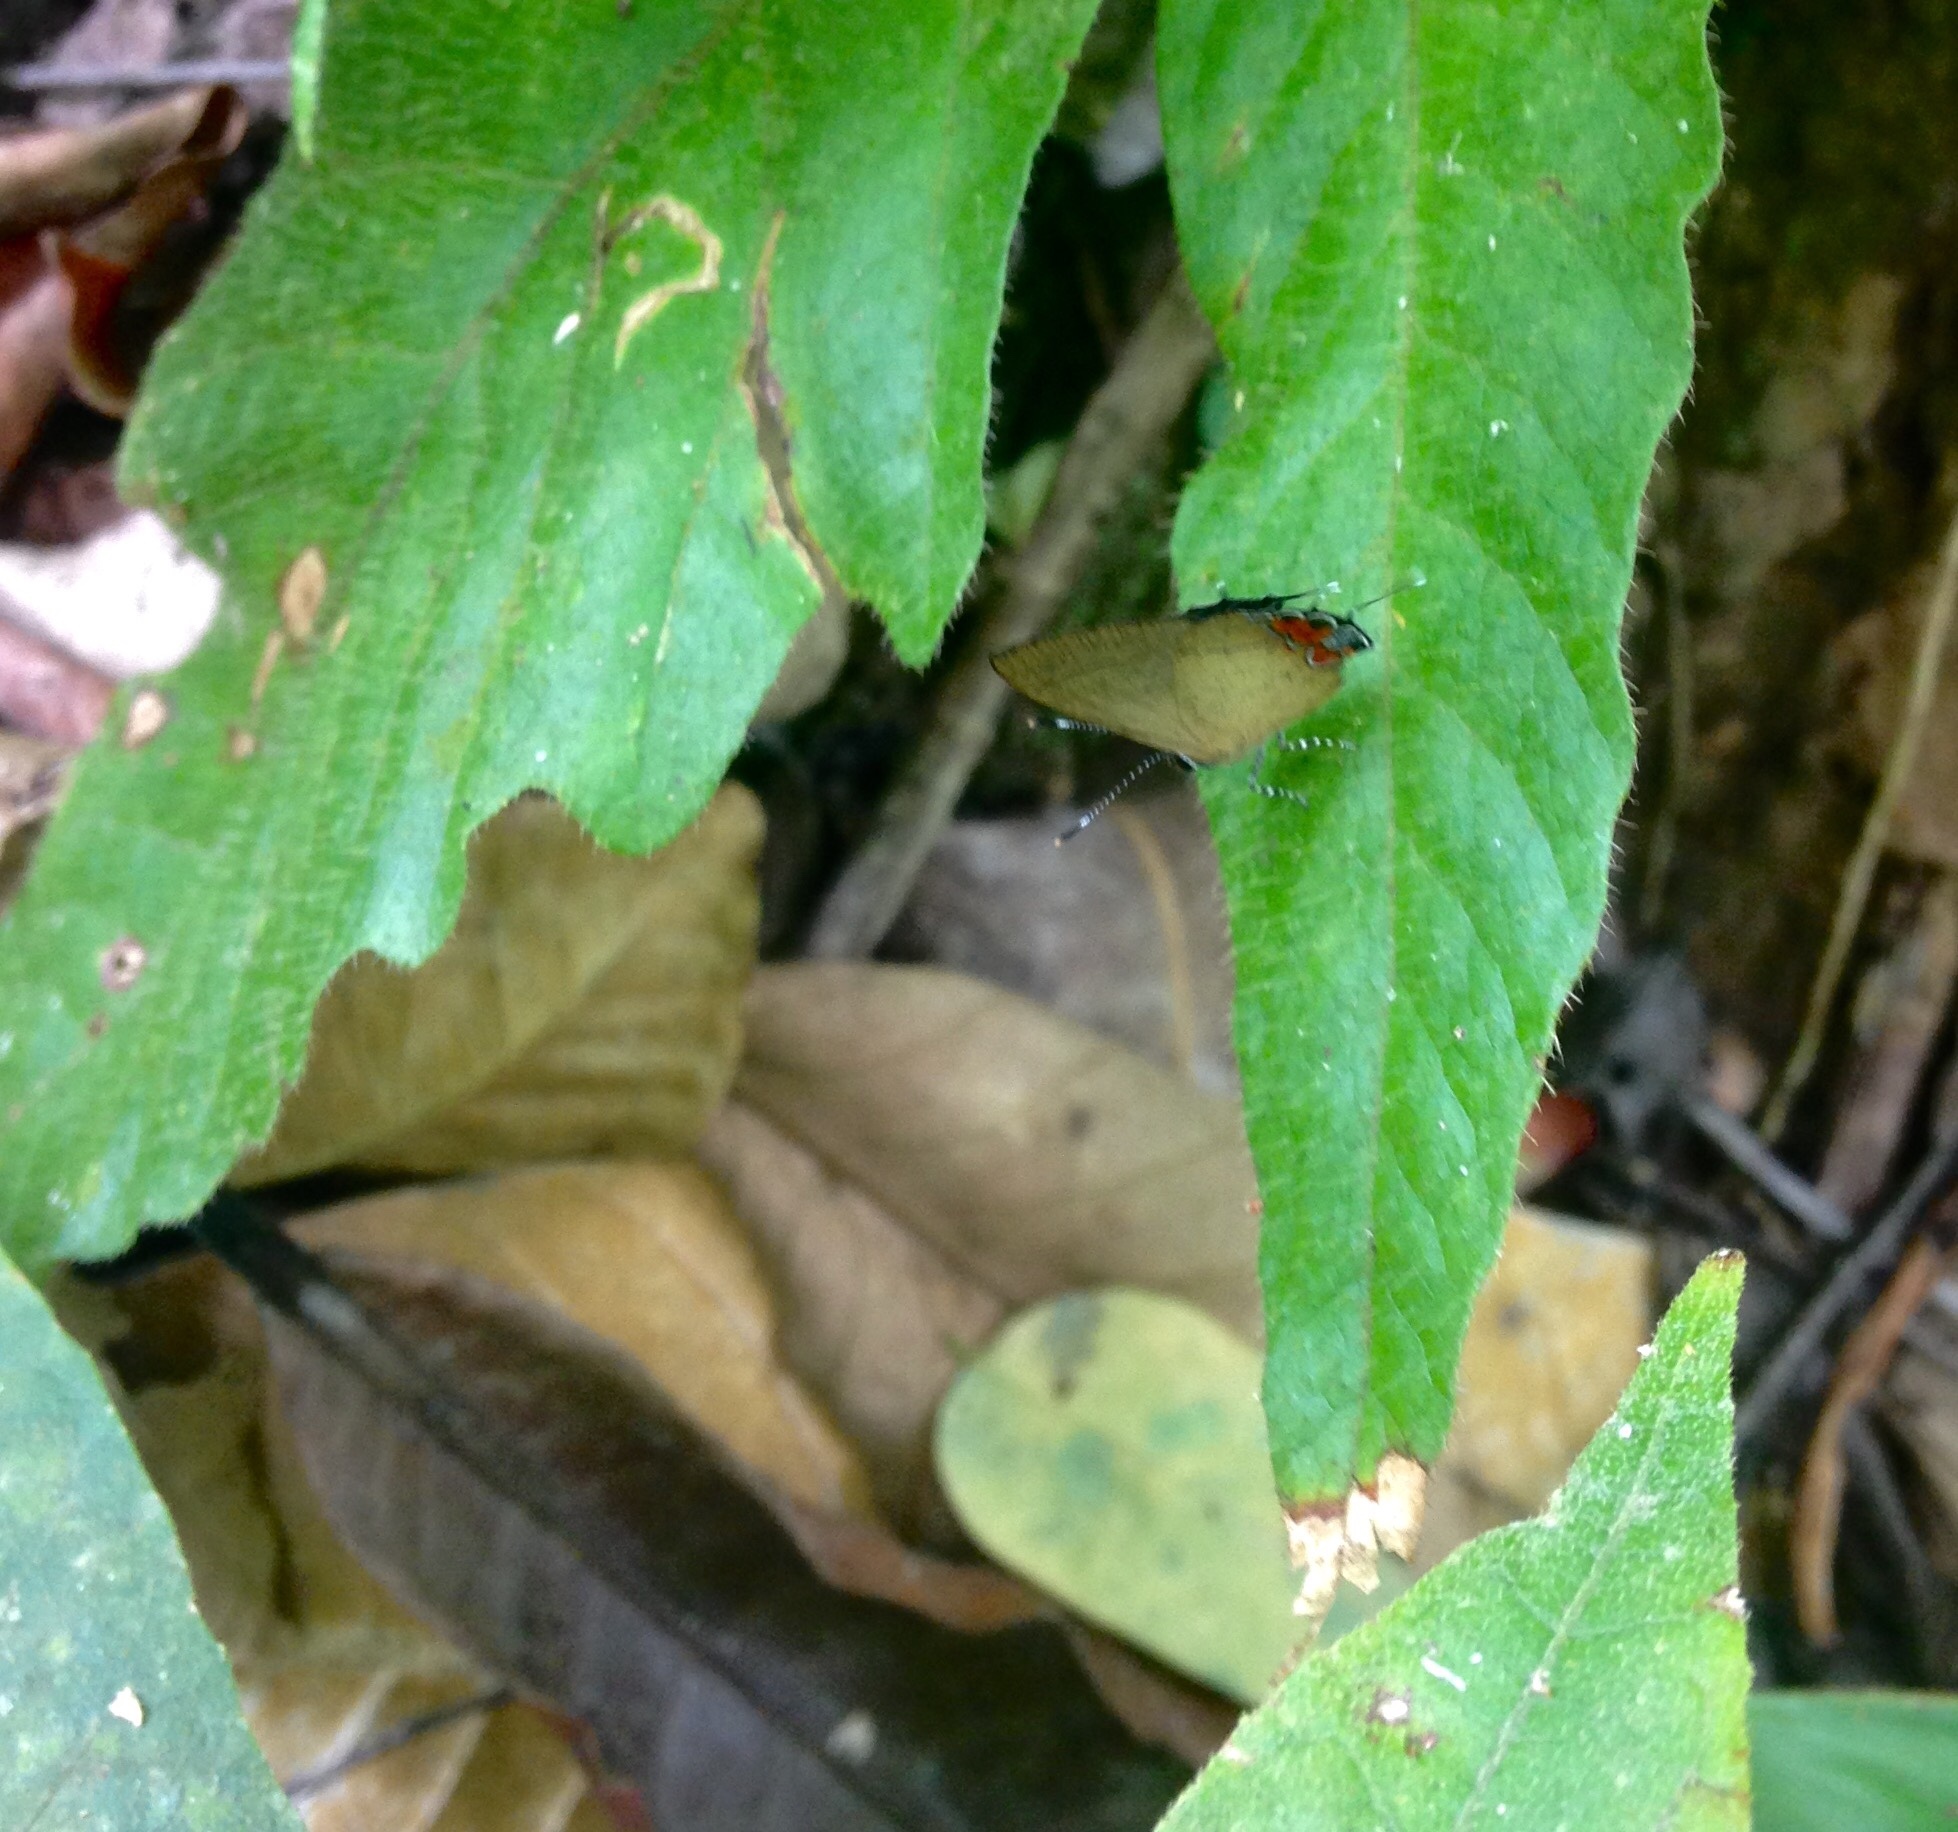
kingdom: Animalia
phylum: Arthropoda
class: Insecta
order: Lepidoptera
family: Lycaenidae
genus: Calycopis
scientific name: Calycopis pisis
